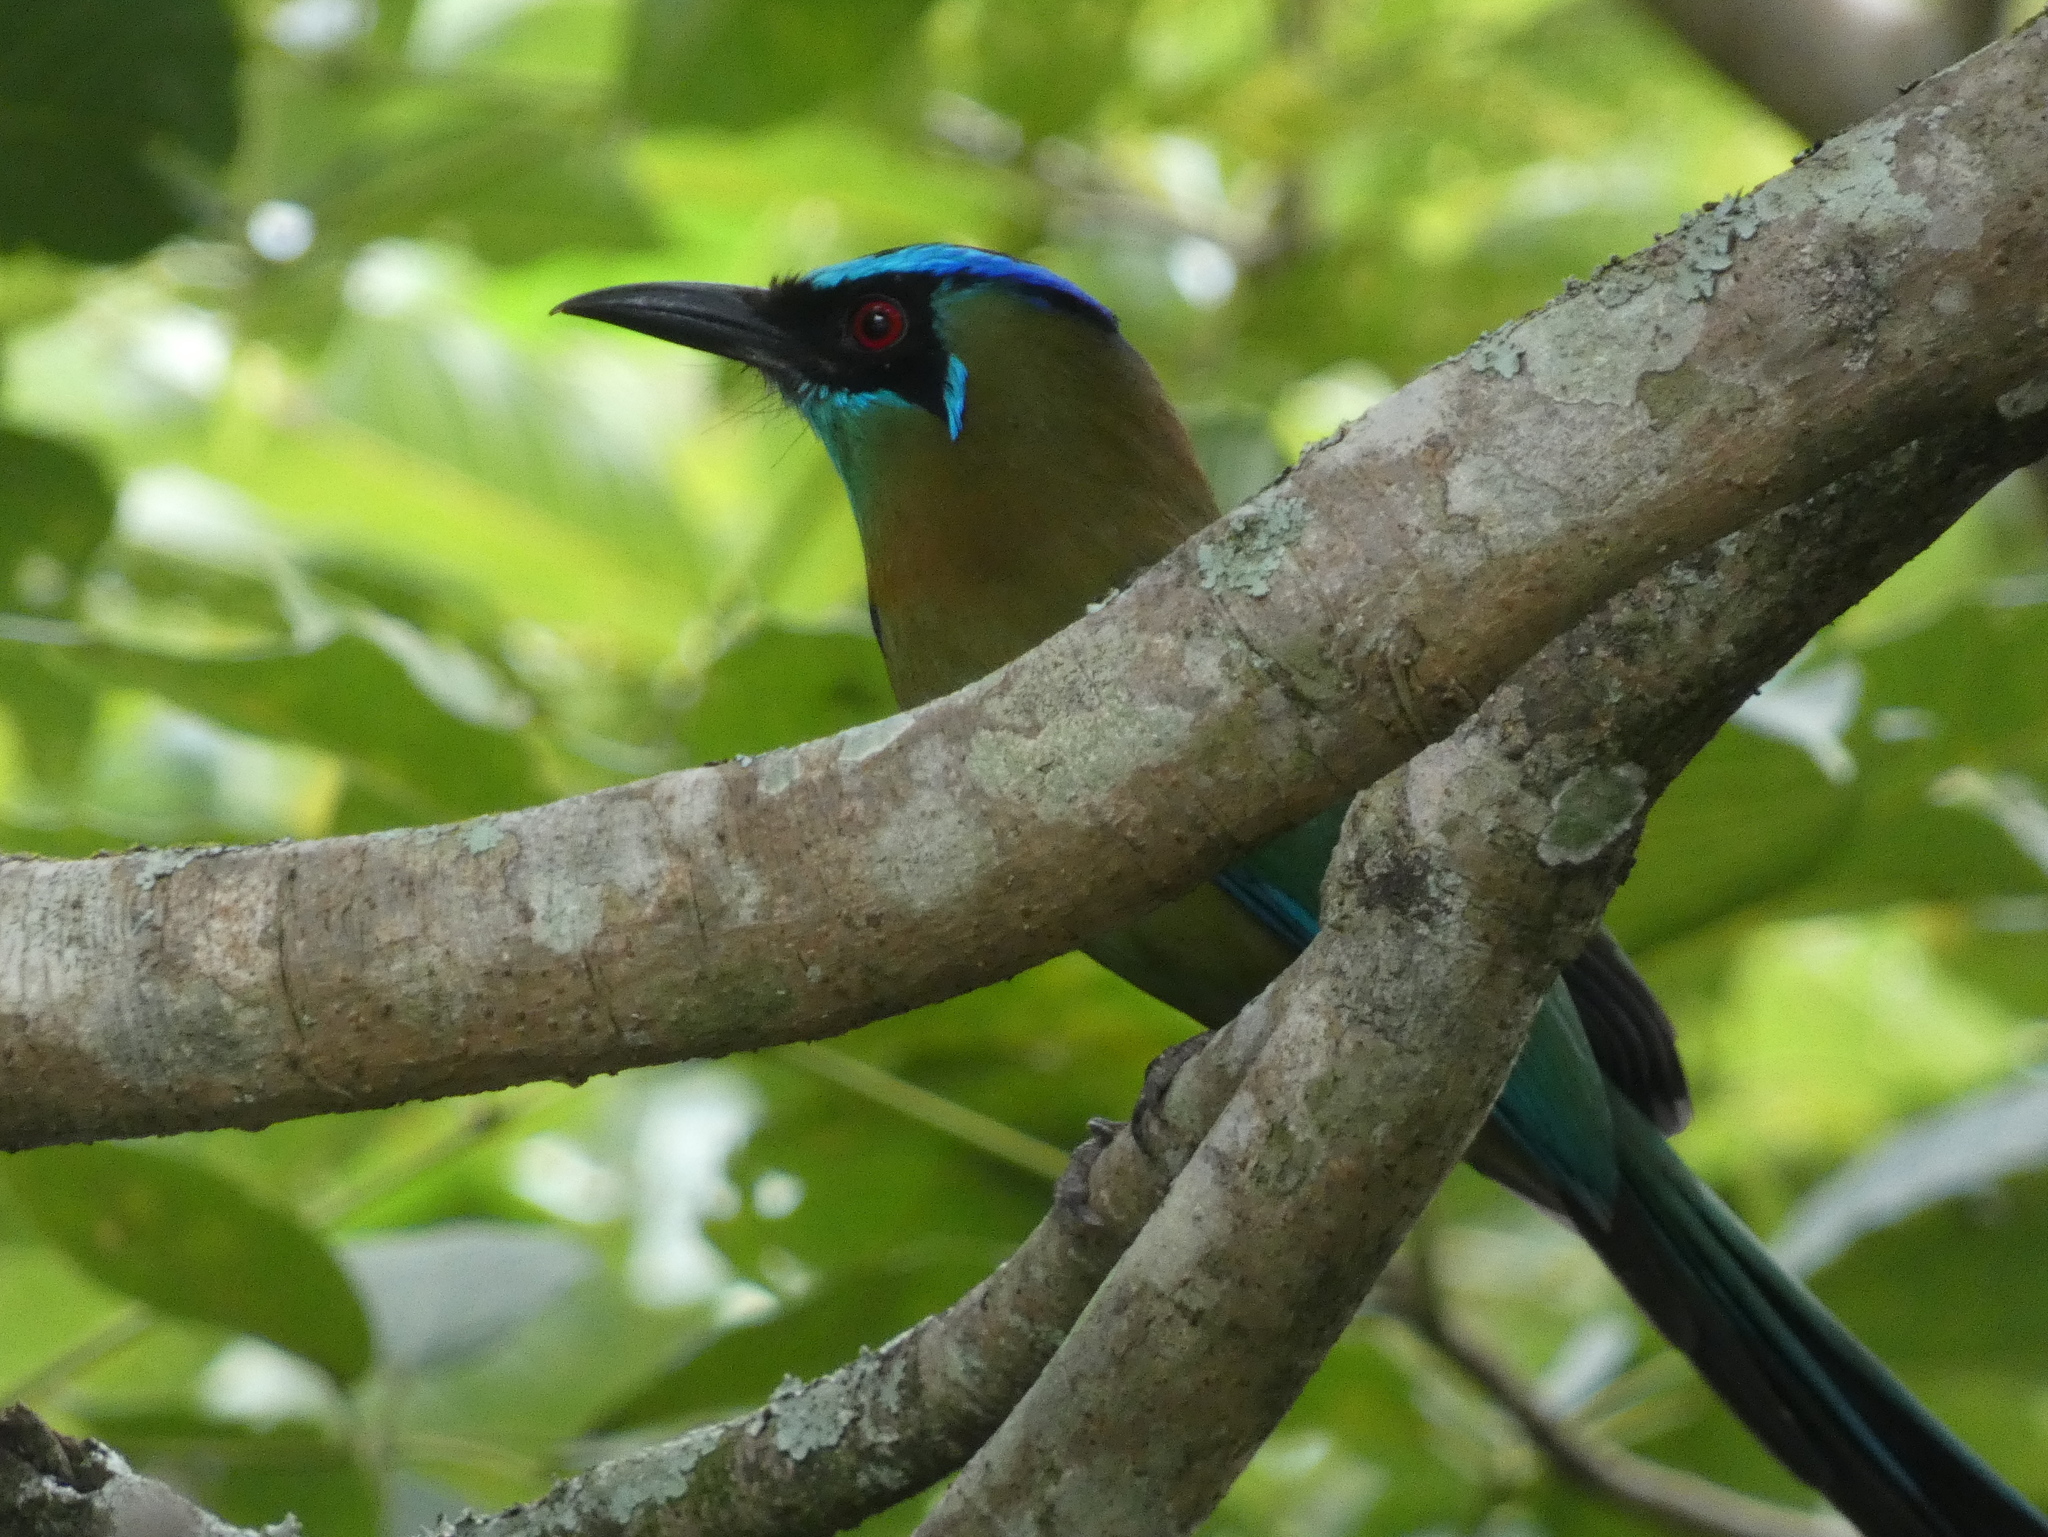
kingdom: Animalia
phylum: Chordata
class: Aves
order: Coraciiformes
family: Momotidae
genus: Momotus
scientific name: Momotus lessonii
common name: Lesson's motmot
